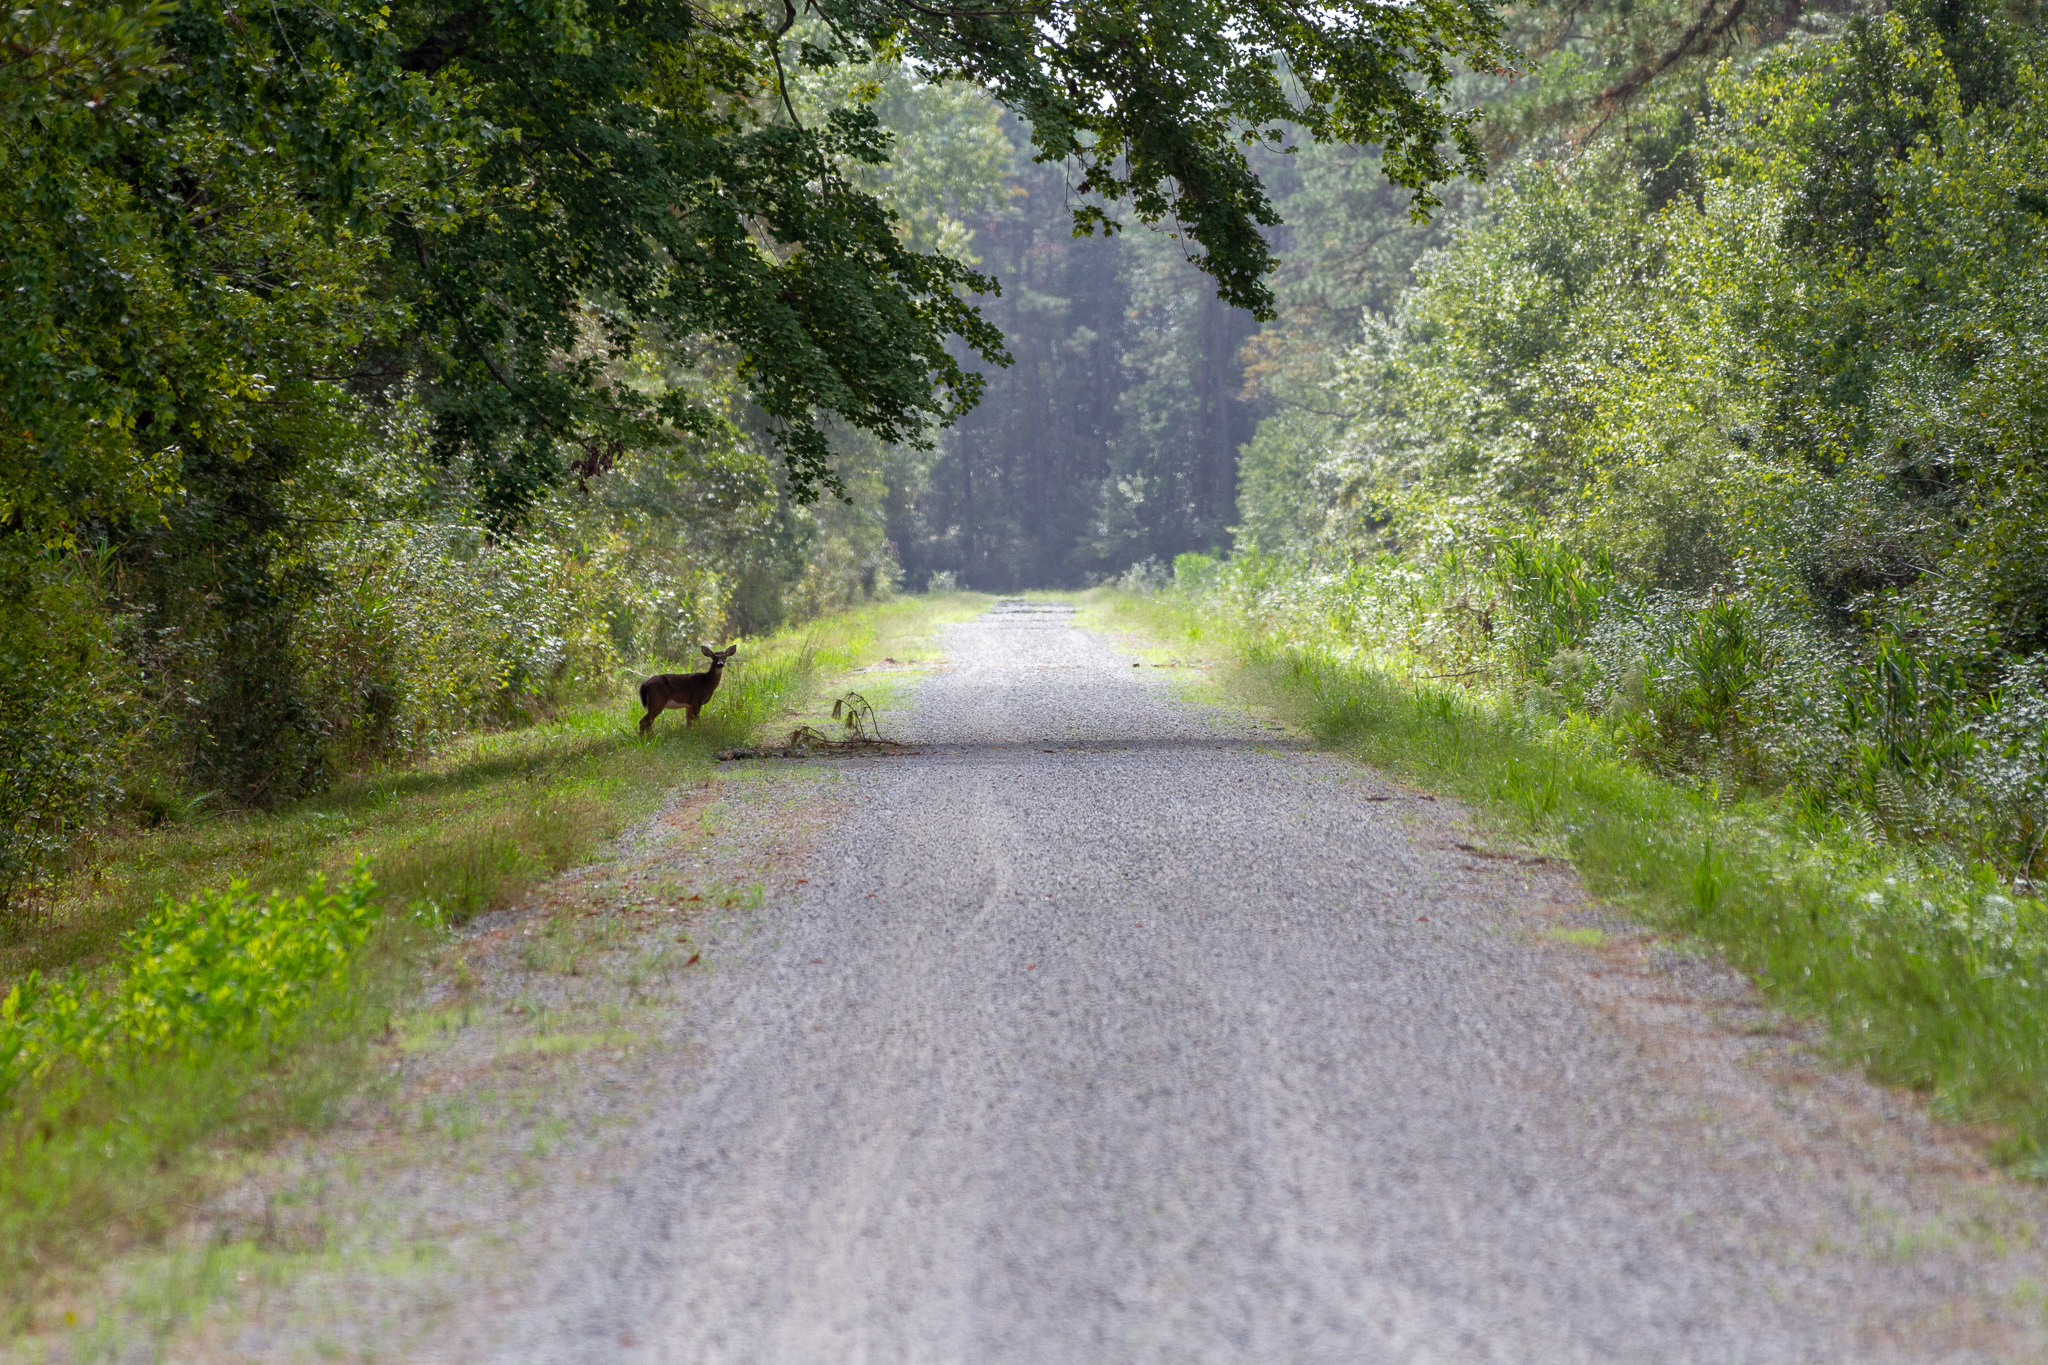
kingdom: Animalia
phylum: Chordata
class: Mammalia
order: Artiodactyla
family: Cervidae
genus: Odocoileus
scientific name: Odocoileus virginianus
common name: White-tailed deer
